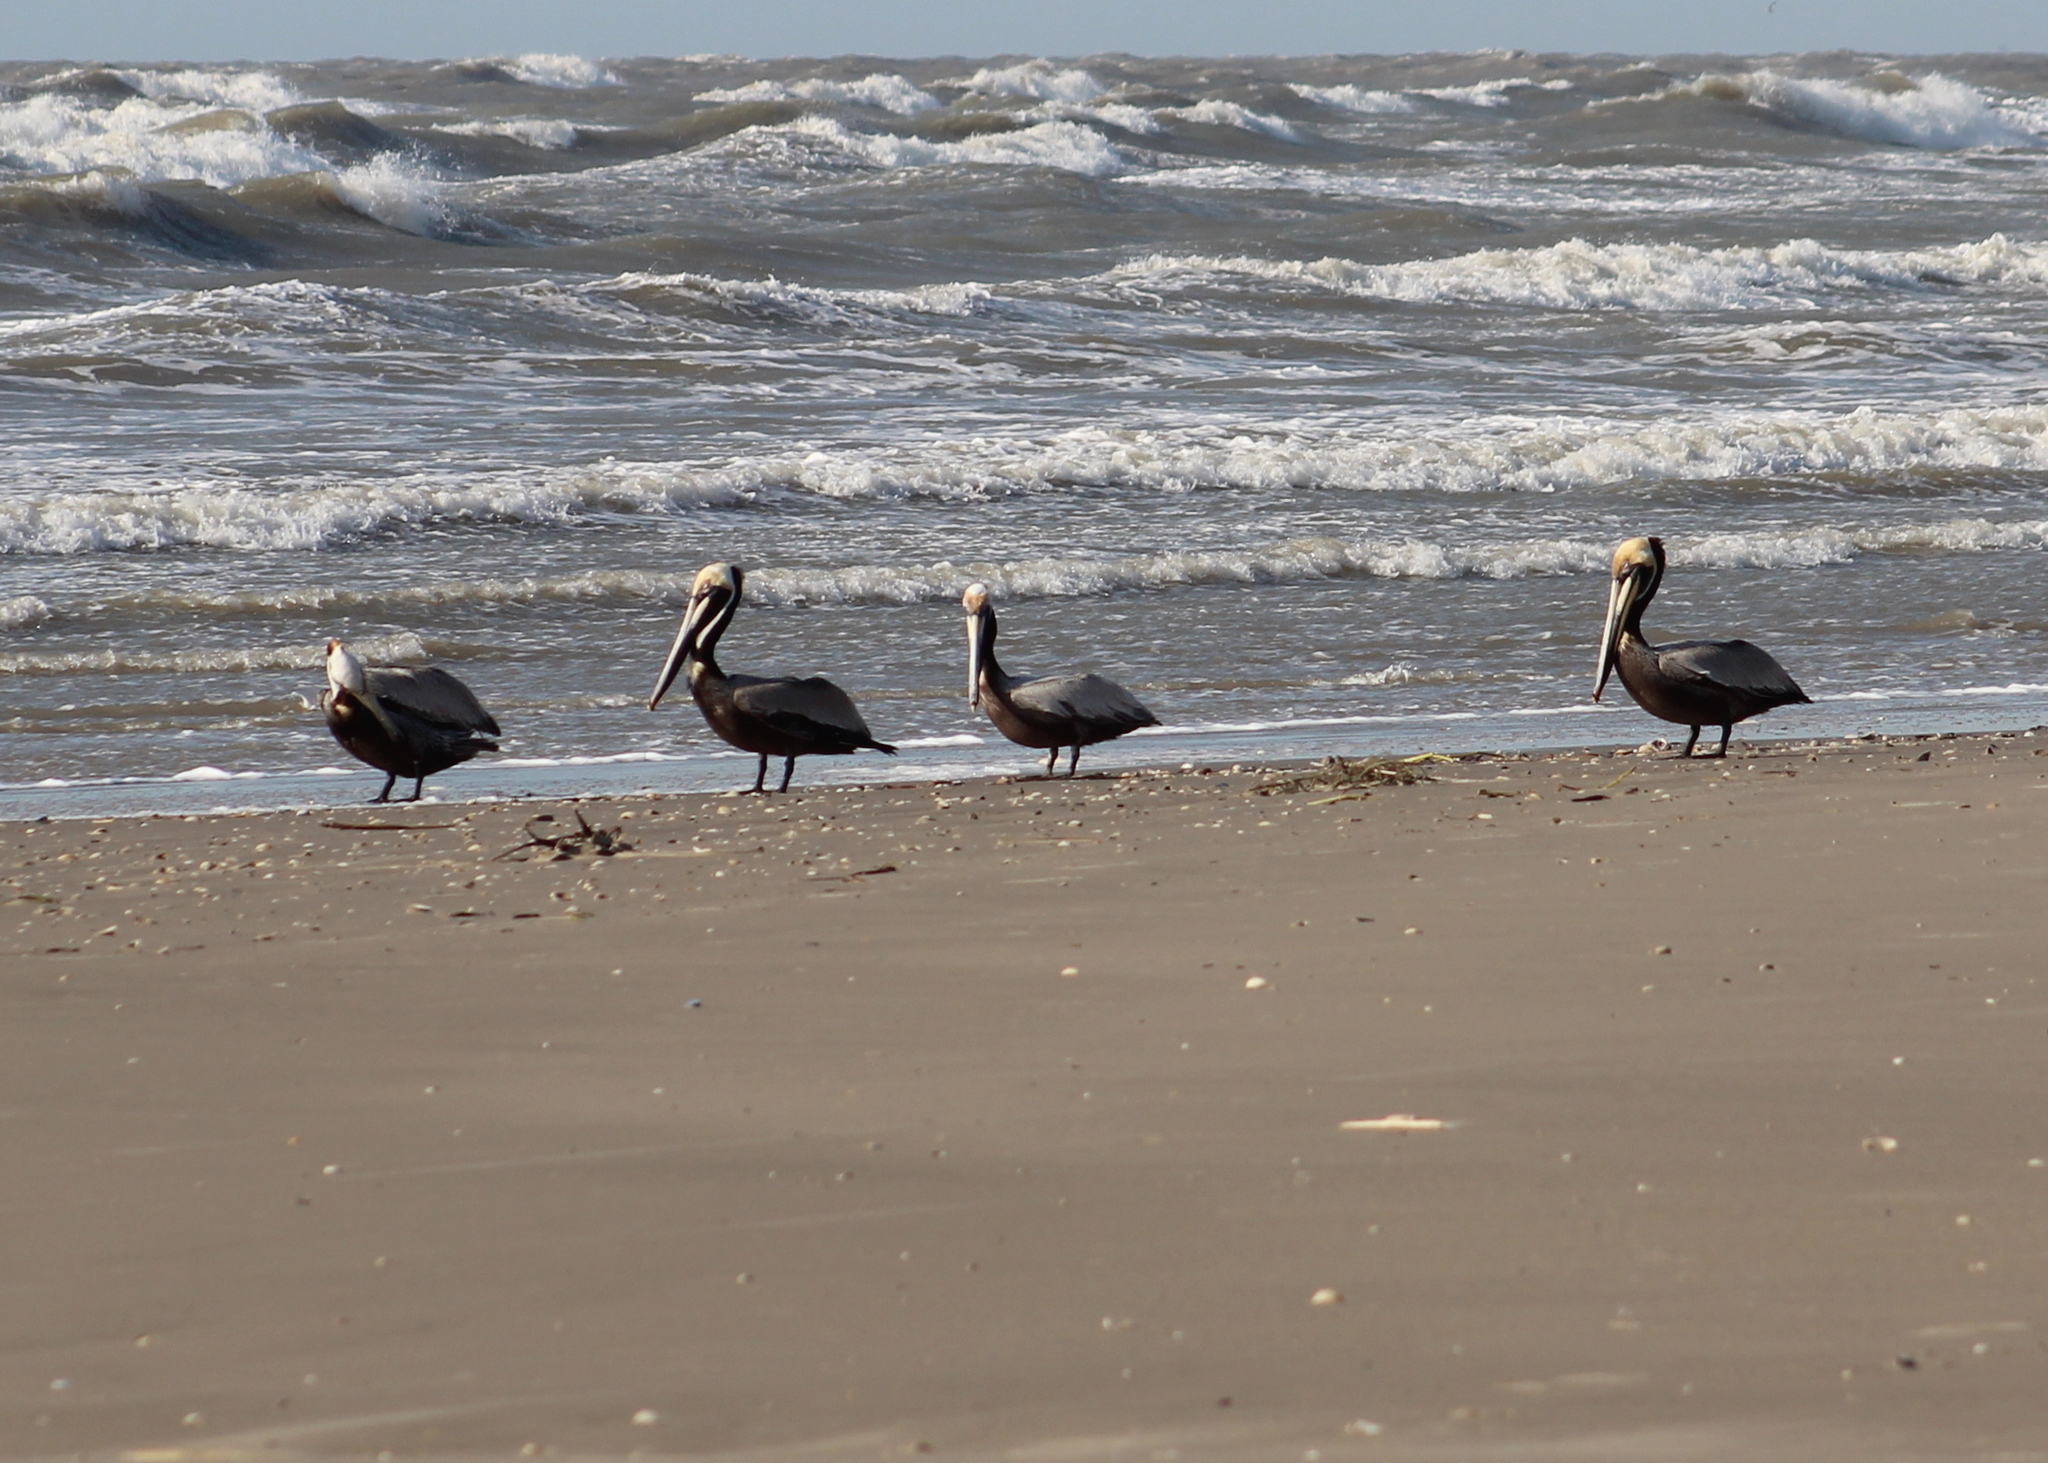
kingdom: Animalia
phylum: Chordata
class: Aves
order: Pelecaniformes
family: Pelecanidae
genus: Pelecanus
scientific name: Pelecanus occidentalis
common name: Brown pelican
